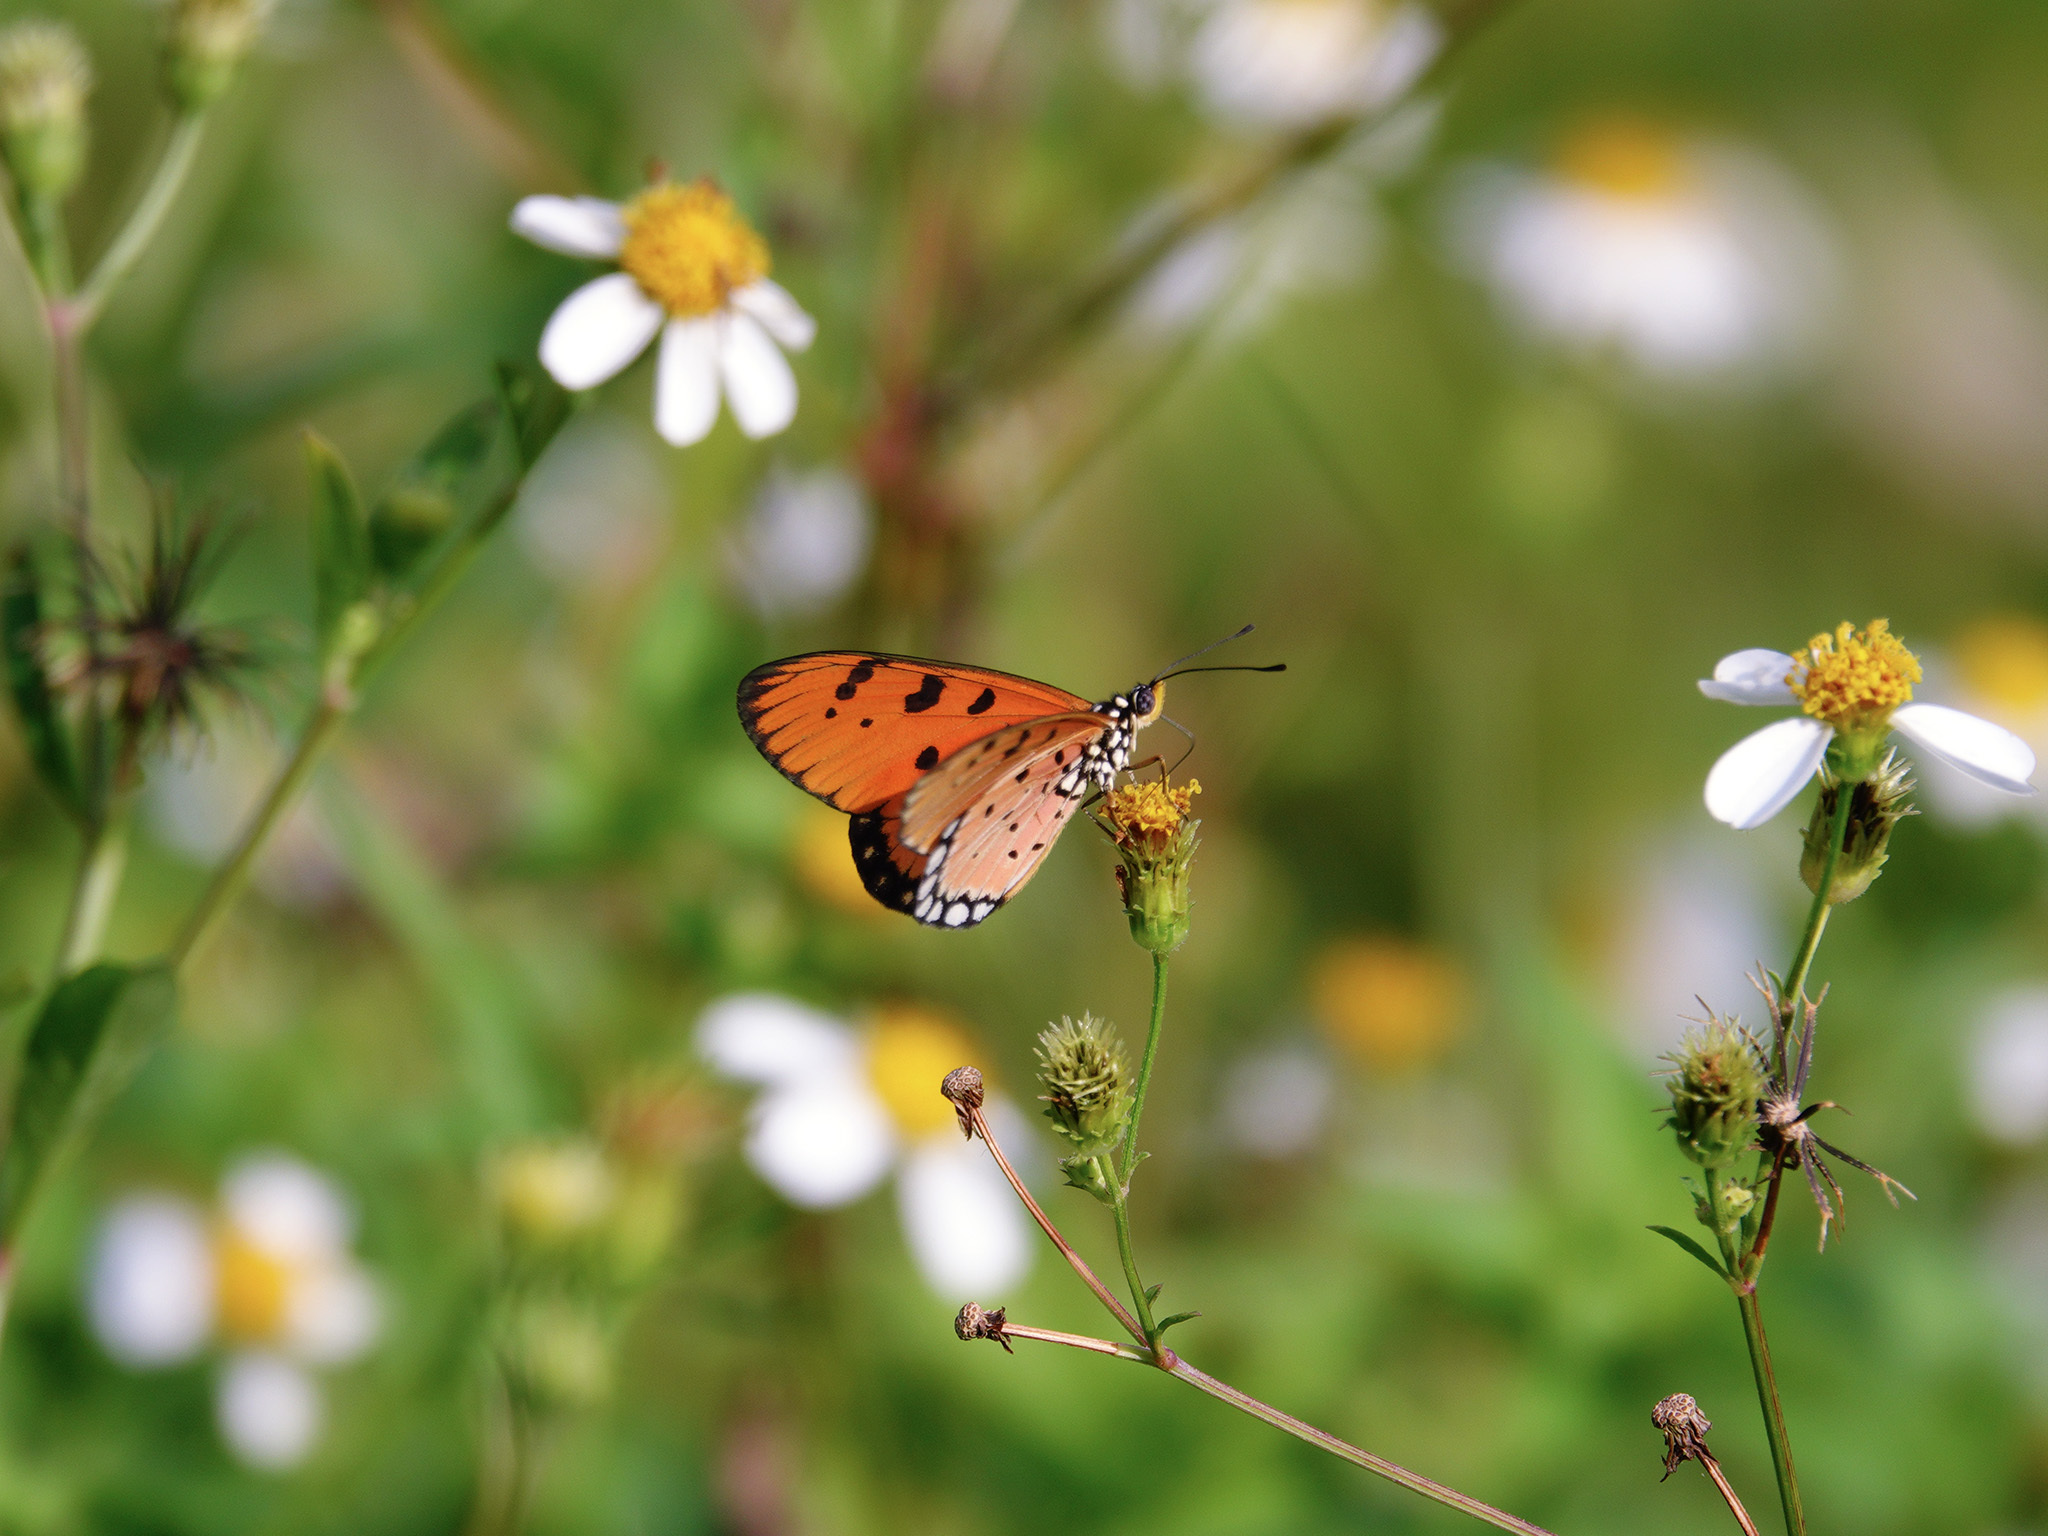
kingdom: Animalia
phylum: Arthropoda
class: Insecta
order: Lepidoptera
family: Nymphalidae
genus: Acraea
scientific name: Acraea terpsicore
